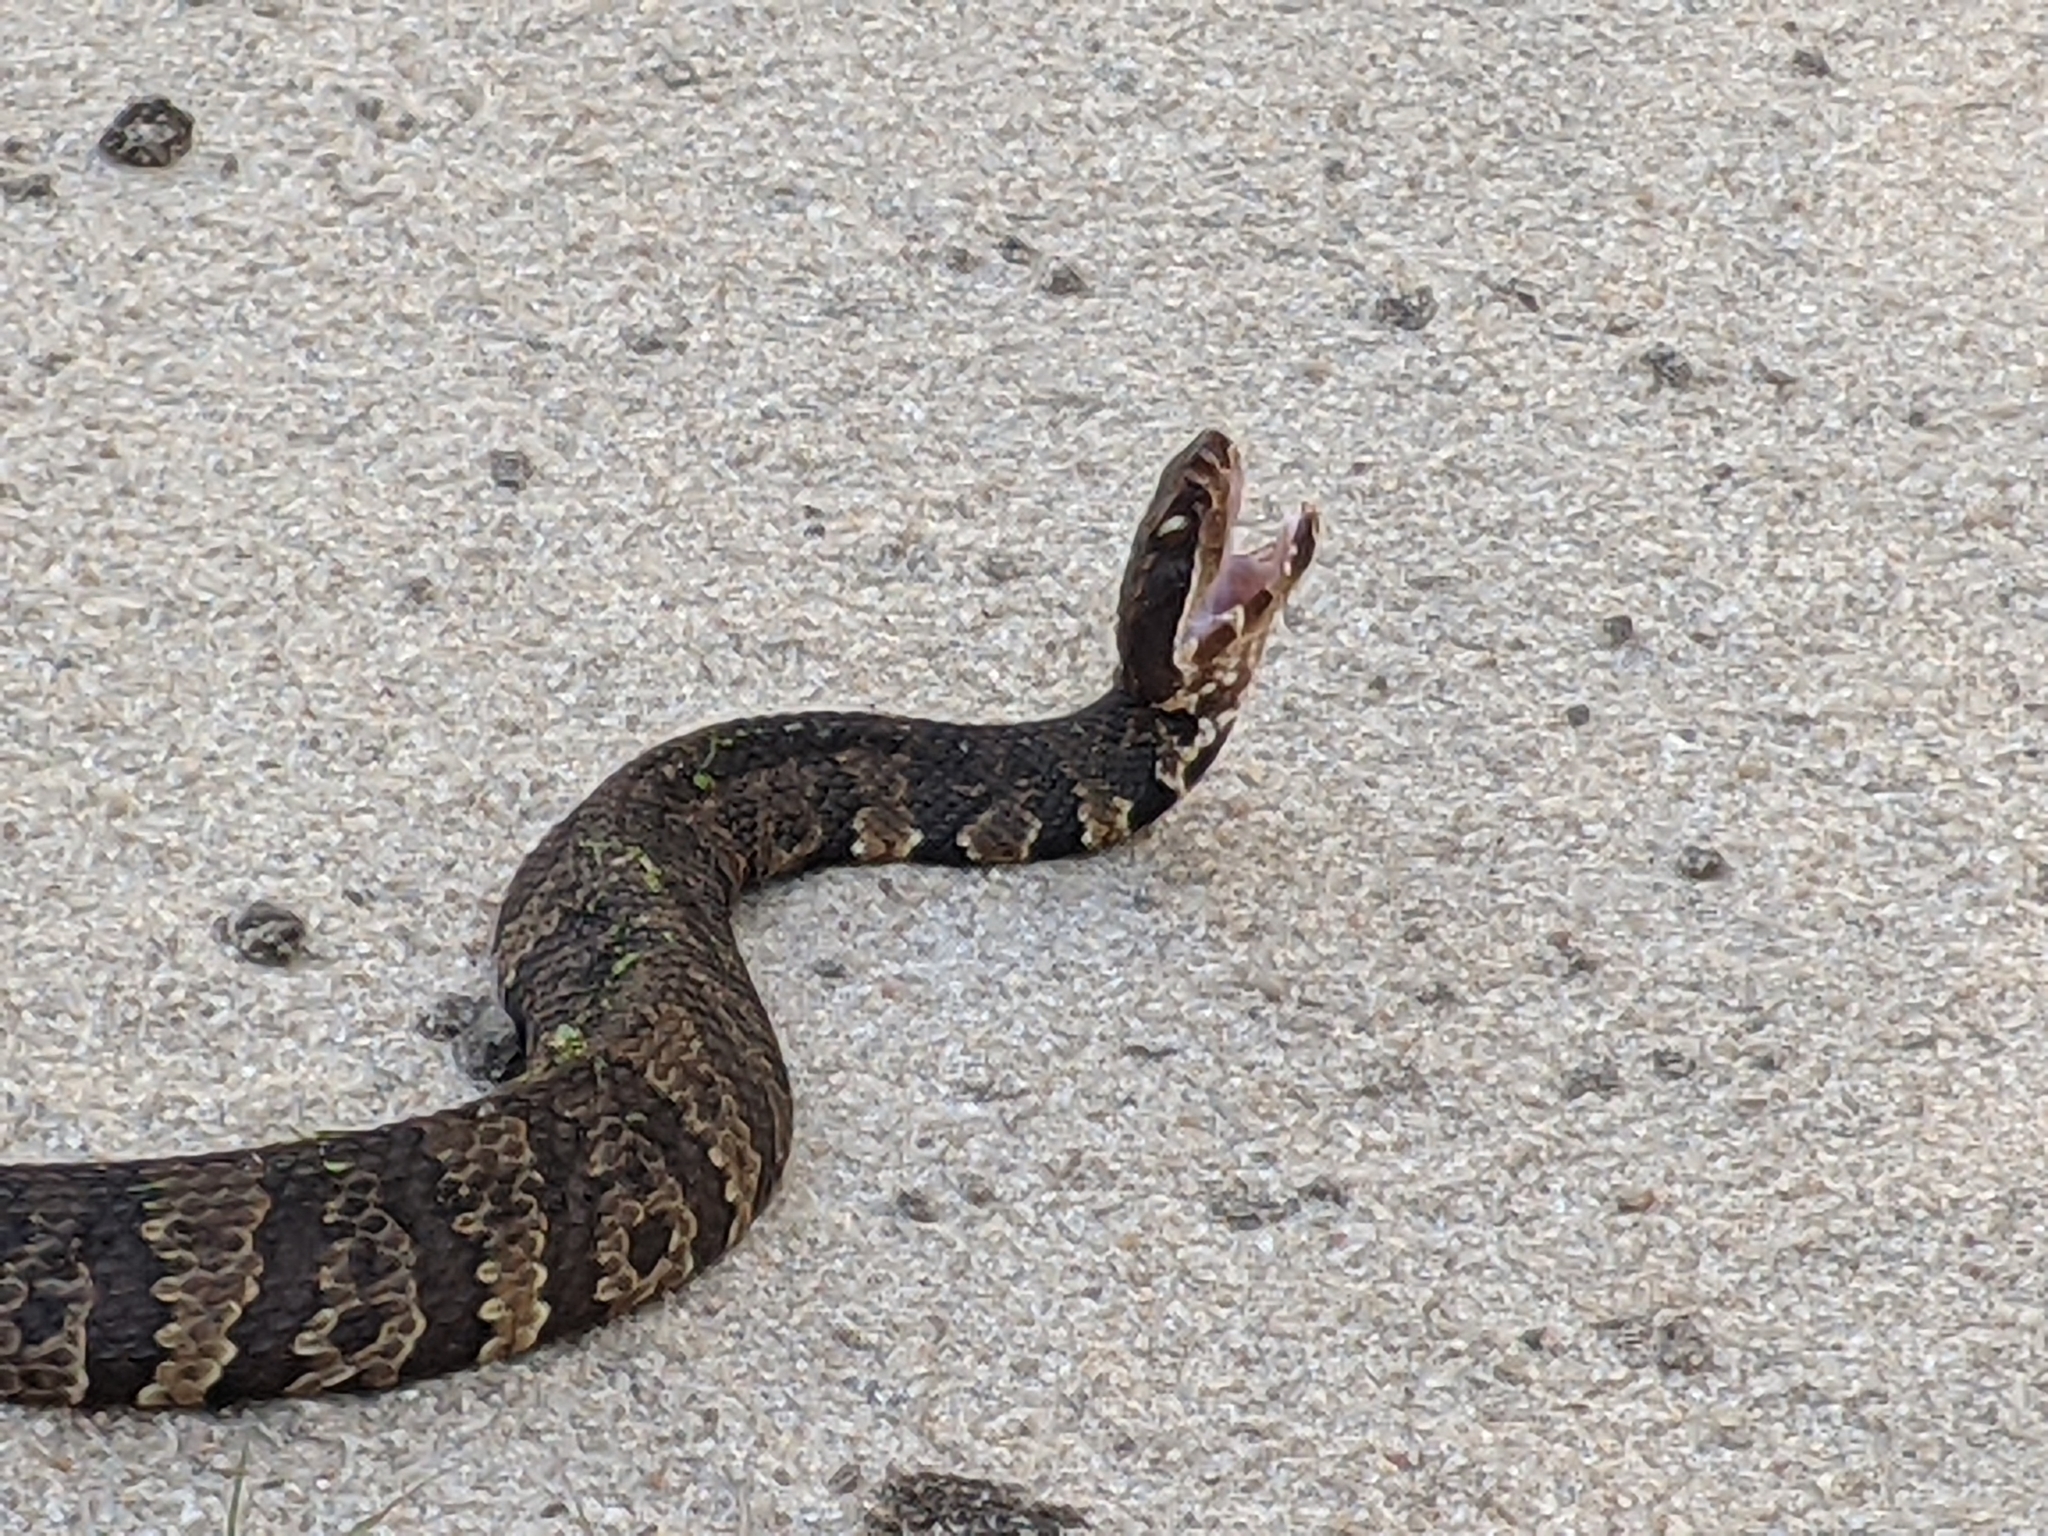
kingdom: Animalia
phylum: Chordata
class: Squamata
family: Viperidae
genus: Agkistrodon
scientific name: Agkistrodon piscivorus
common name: Cottonmouth
